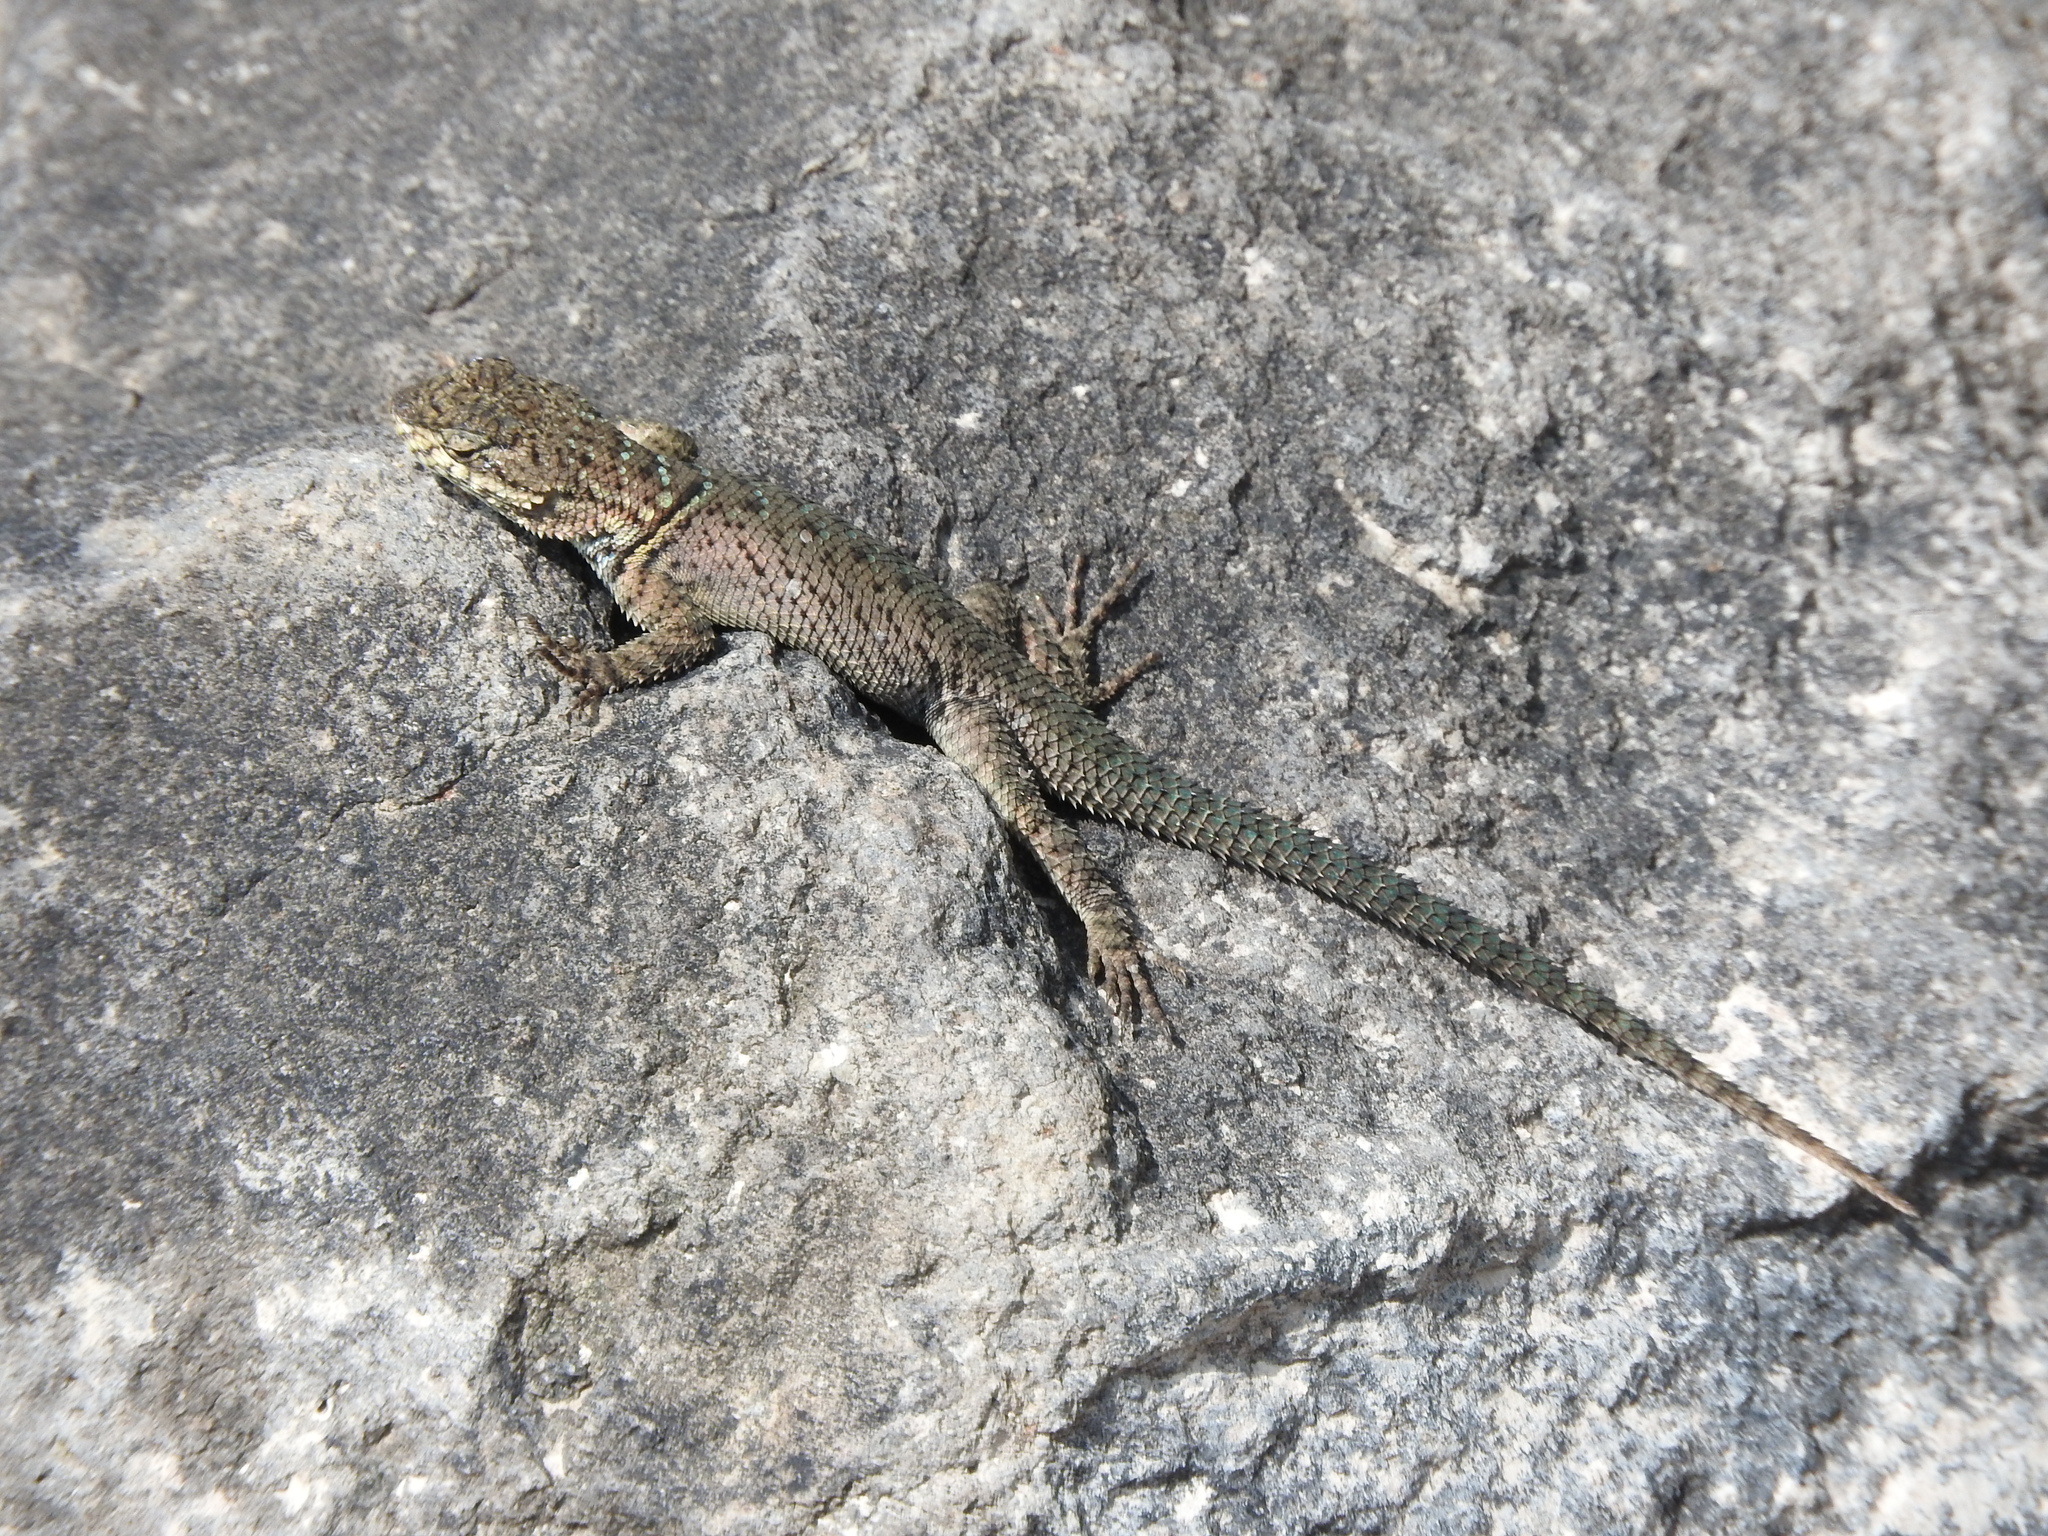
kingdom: Animalia
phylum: Chordata
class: Squamata
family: Phrynosomatidae
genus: Sceloporus
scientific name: Sceloporus dugesii
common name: Duges' spiny lizard
